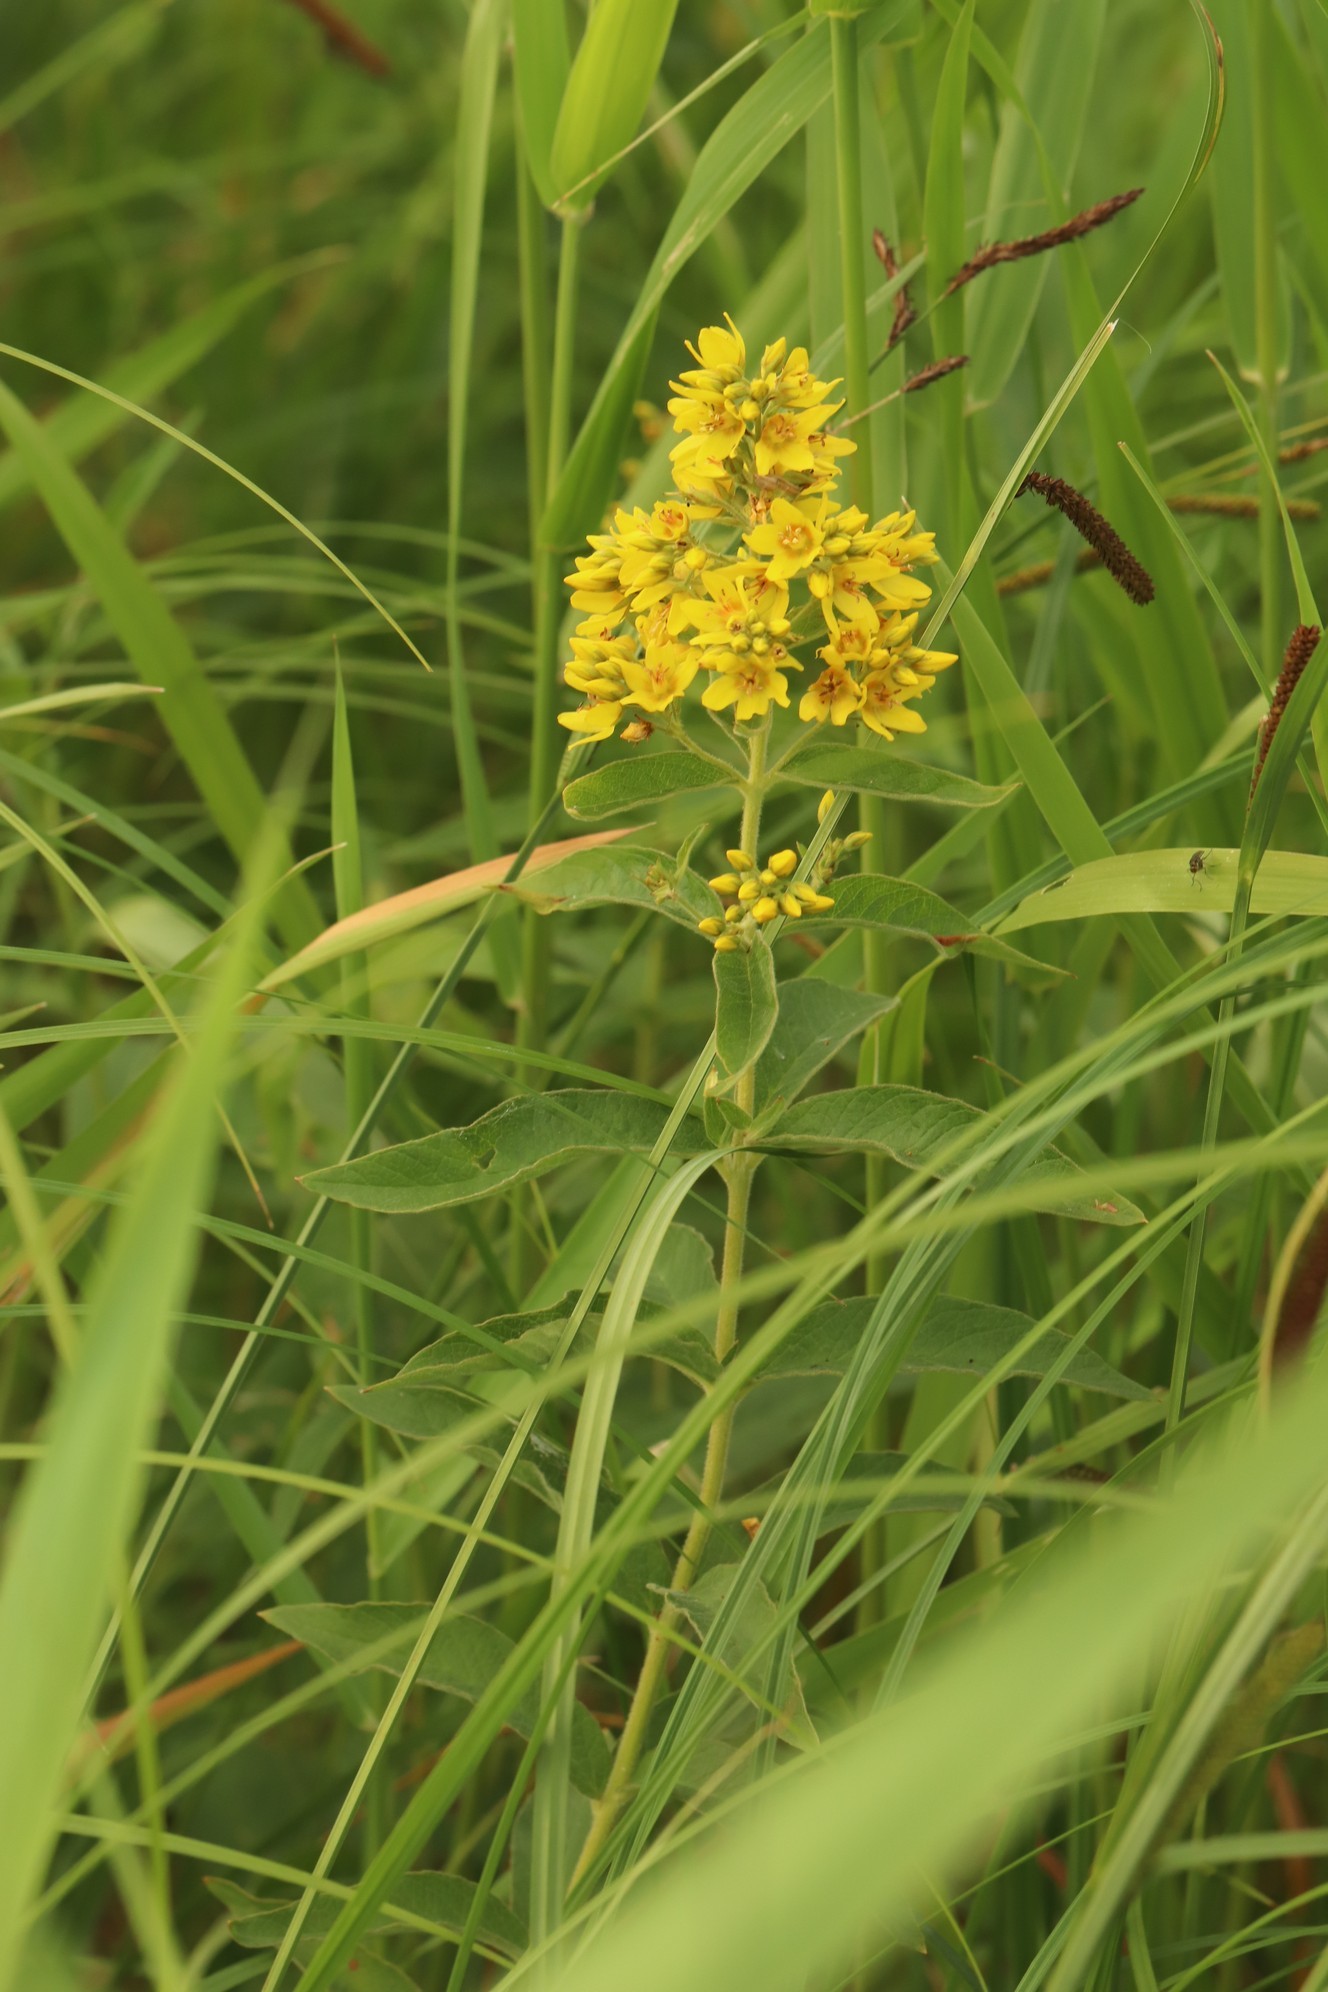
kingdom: Plantae
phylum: Tracheophyta
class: Magnoliopsida
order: Ericales
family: Primulaceae
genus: Lysimachia
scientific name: Lysimachia vulgaris
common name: Yellow loosestrife
